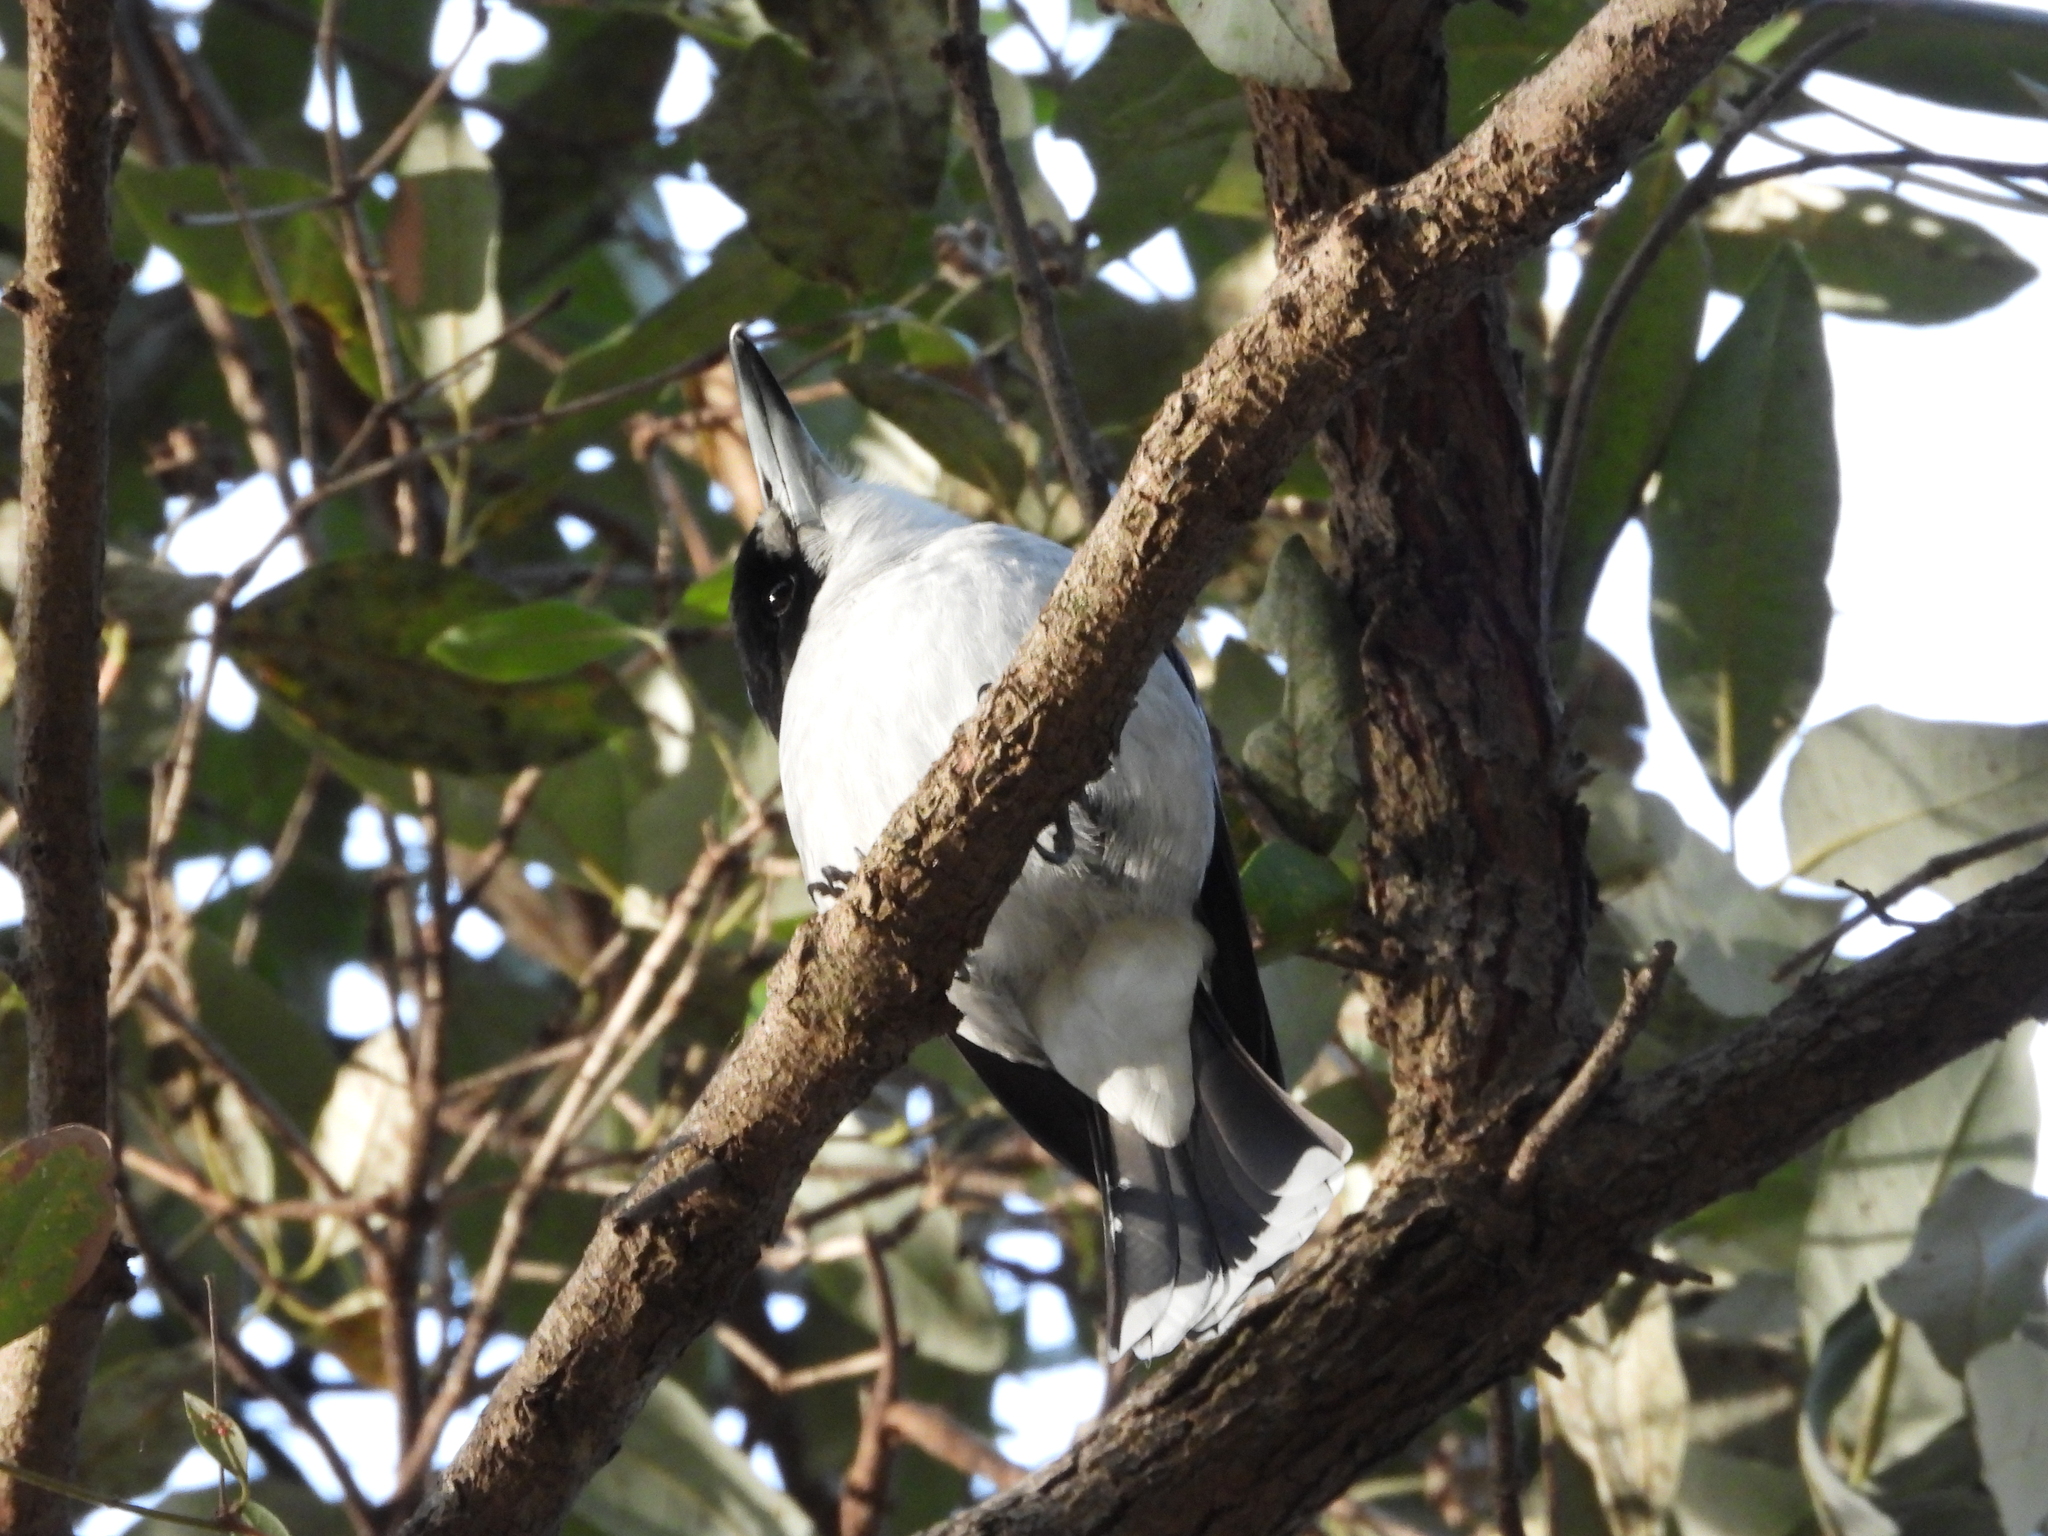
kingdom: Animalia
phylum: Chordata
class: Aves
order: Passeriformes
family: Cracticidae
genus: Cracticus
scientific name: Cracticus torquatus
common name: Grey butcherbird
